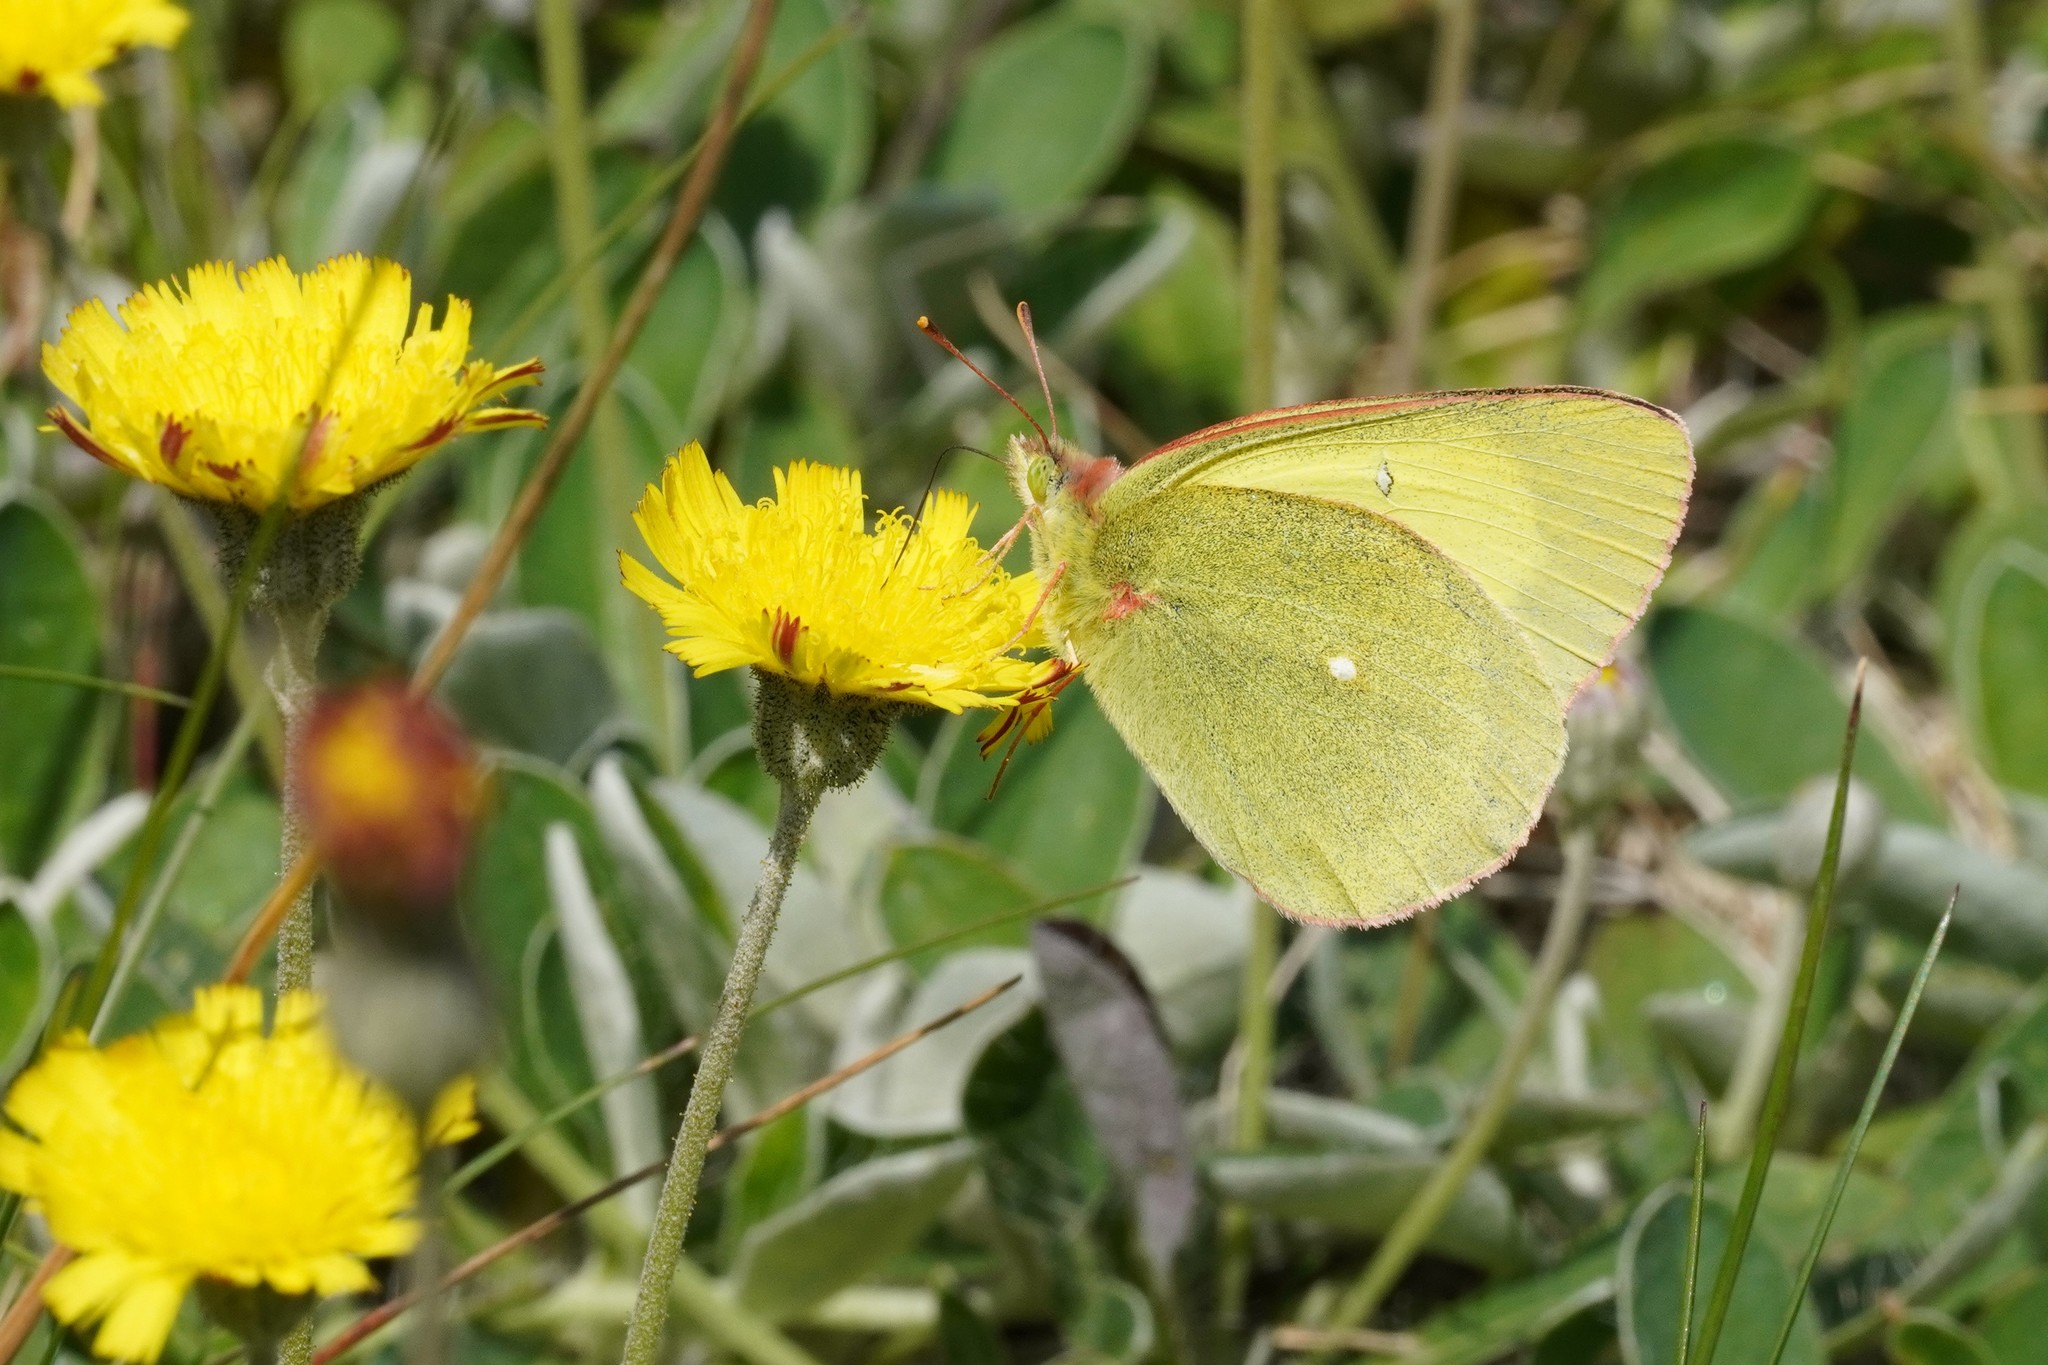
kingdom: Animalia
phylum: Arthropoda
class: Insecta
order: Lepidoptera
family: Pieridae
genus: Colias
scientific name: Colias palaeno
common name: Moorland clouded yellow
